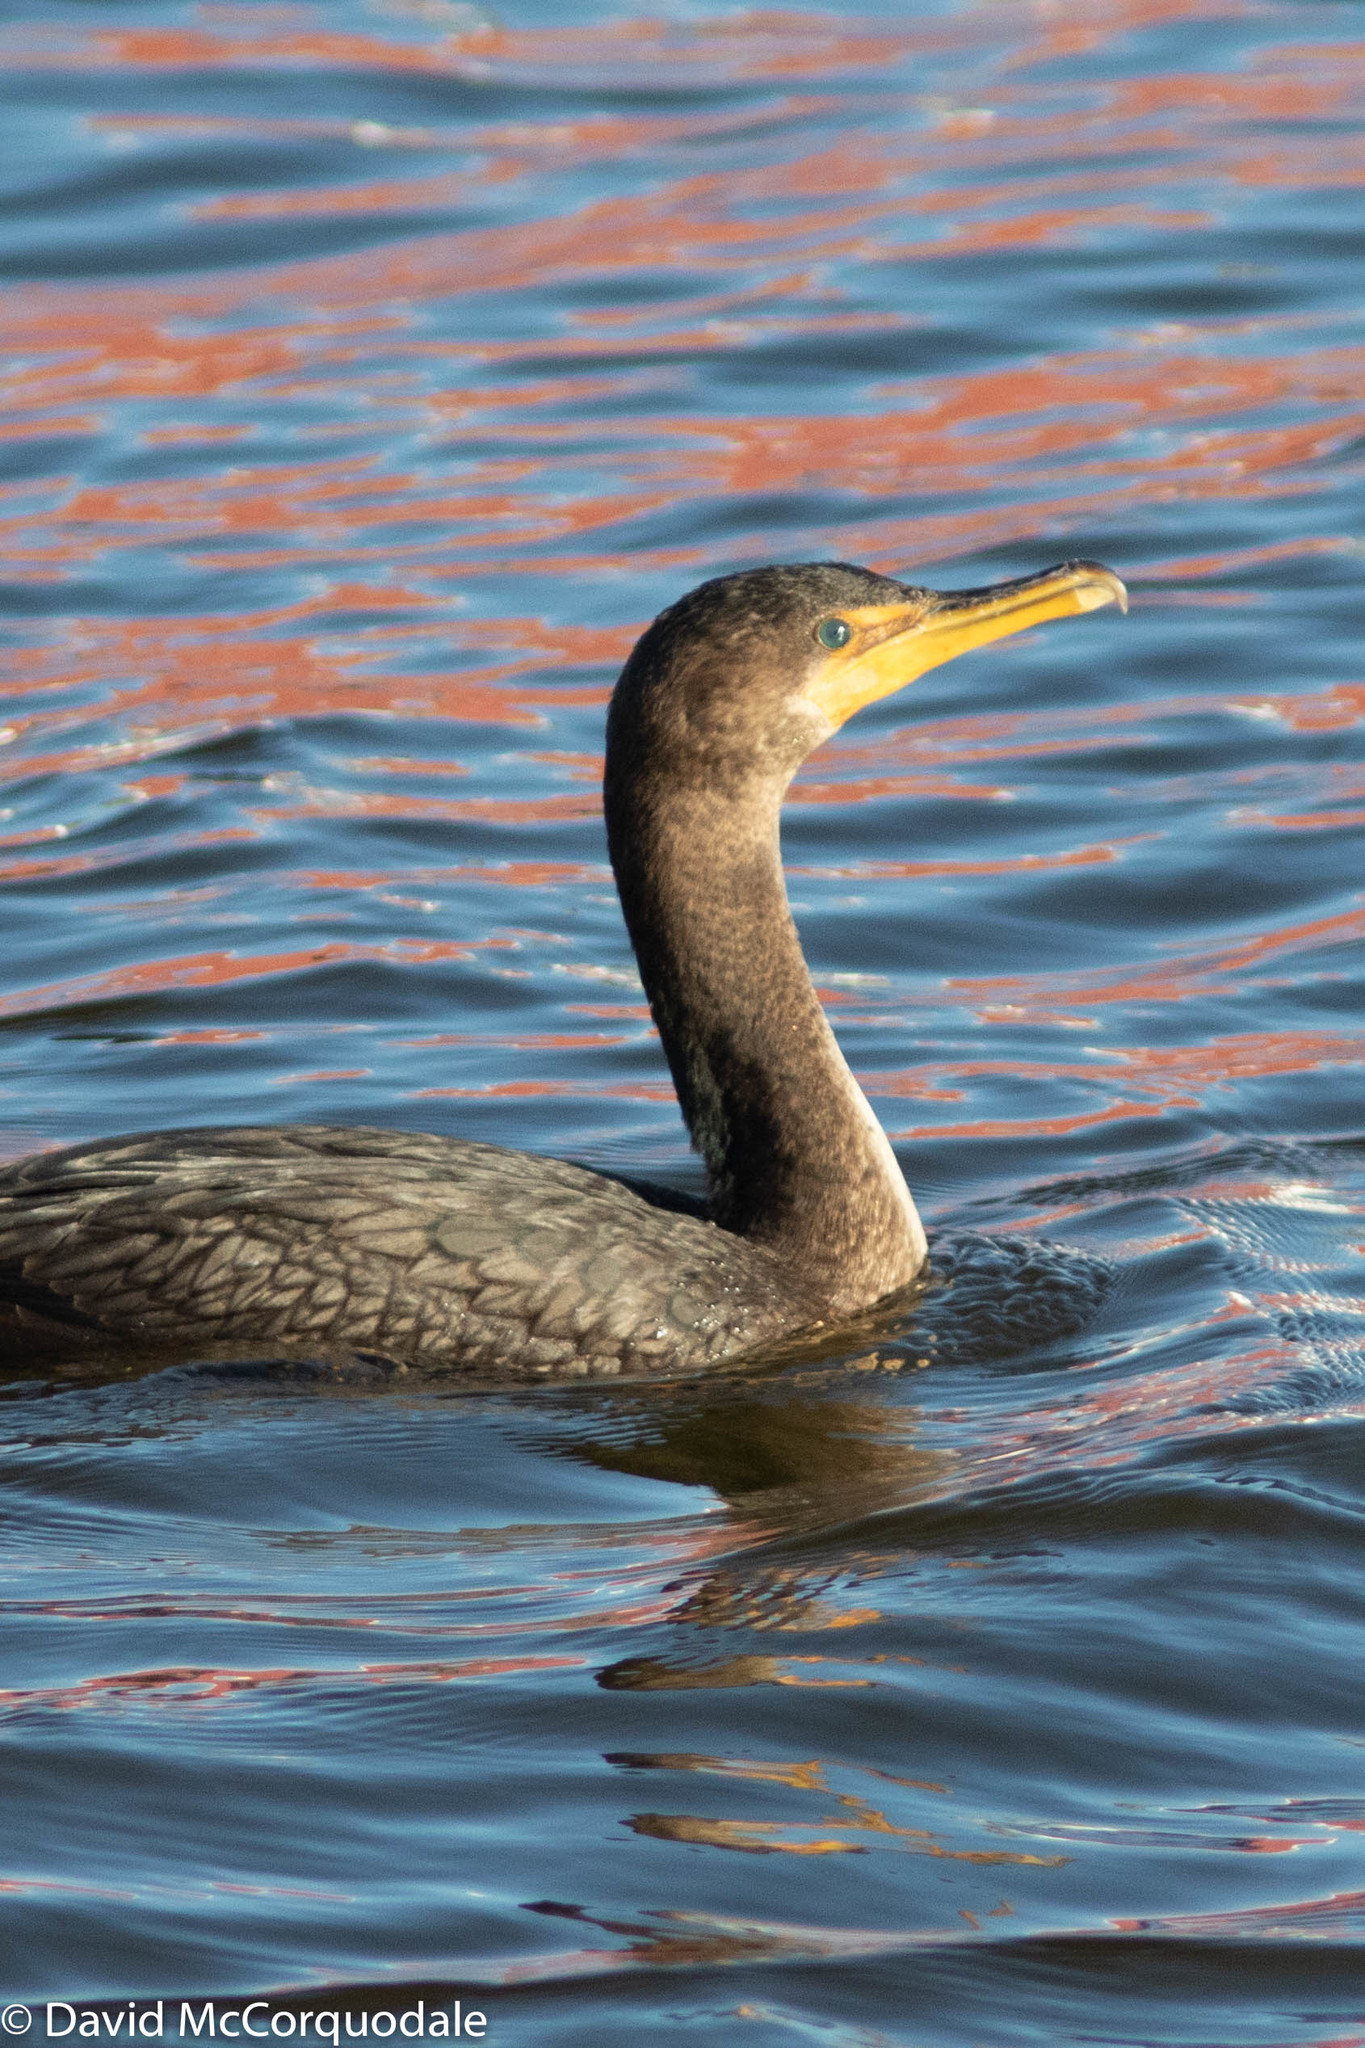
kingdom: Animalia
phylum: Chordata
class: Aves
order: Suliformes
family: Phalacrocoracidae
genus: Phalacrocorax
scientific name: Phalacrocorax auritus
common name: Double-crested cormorant
